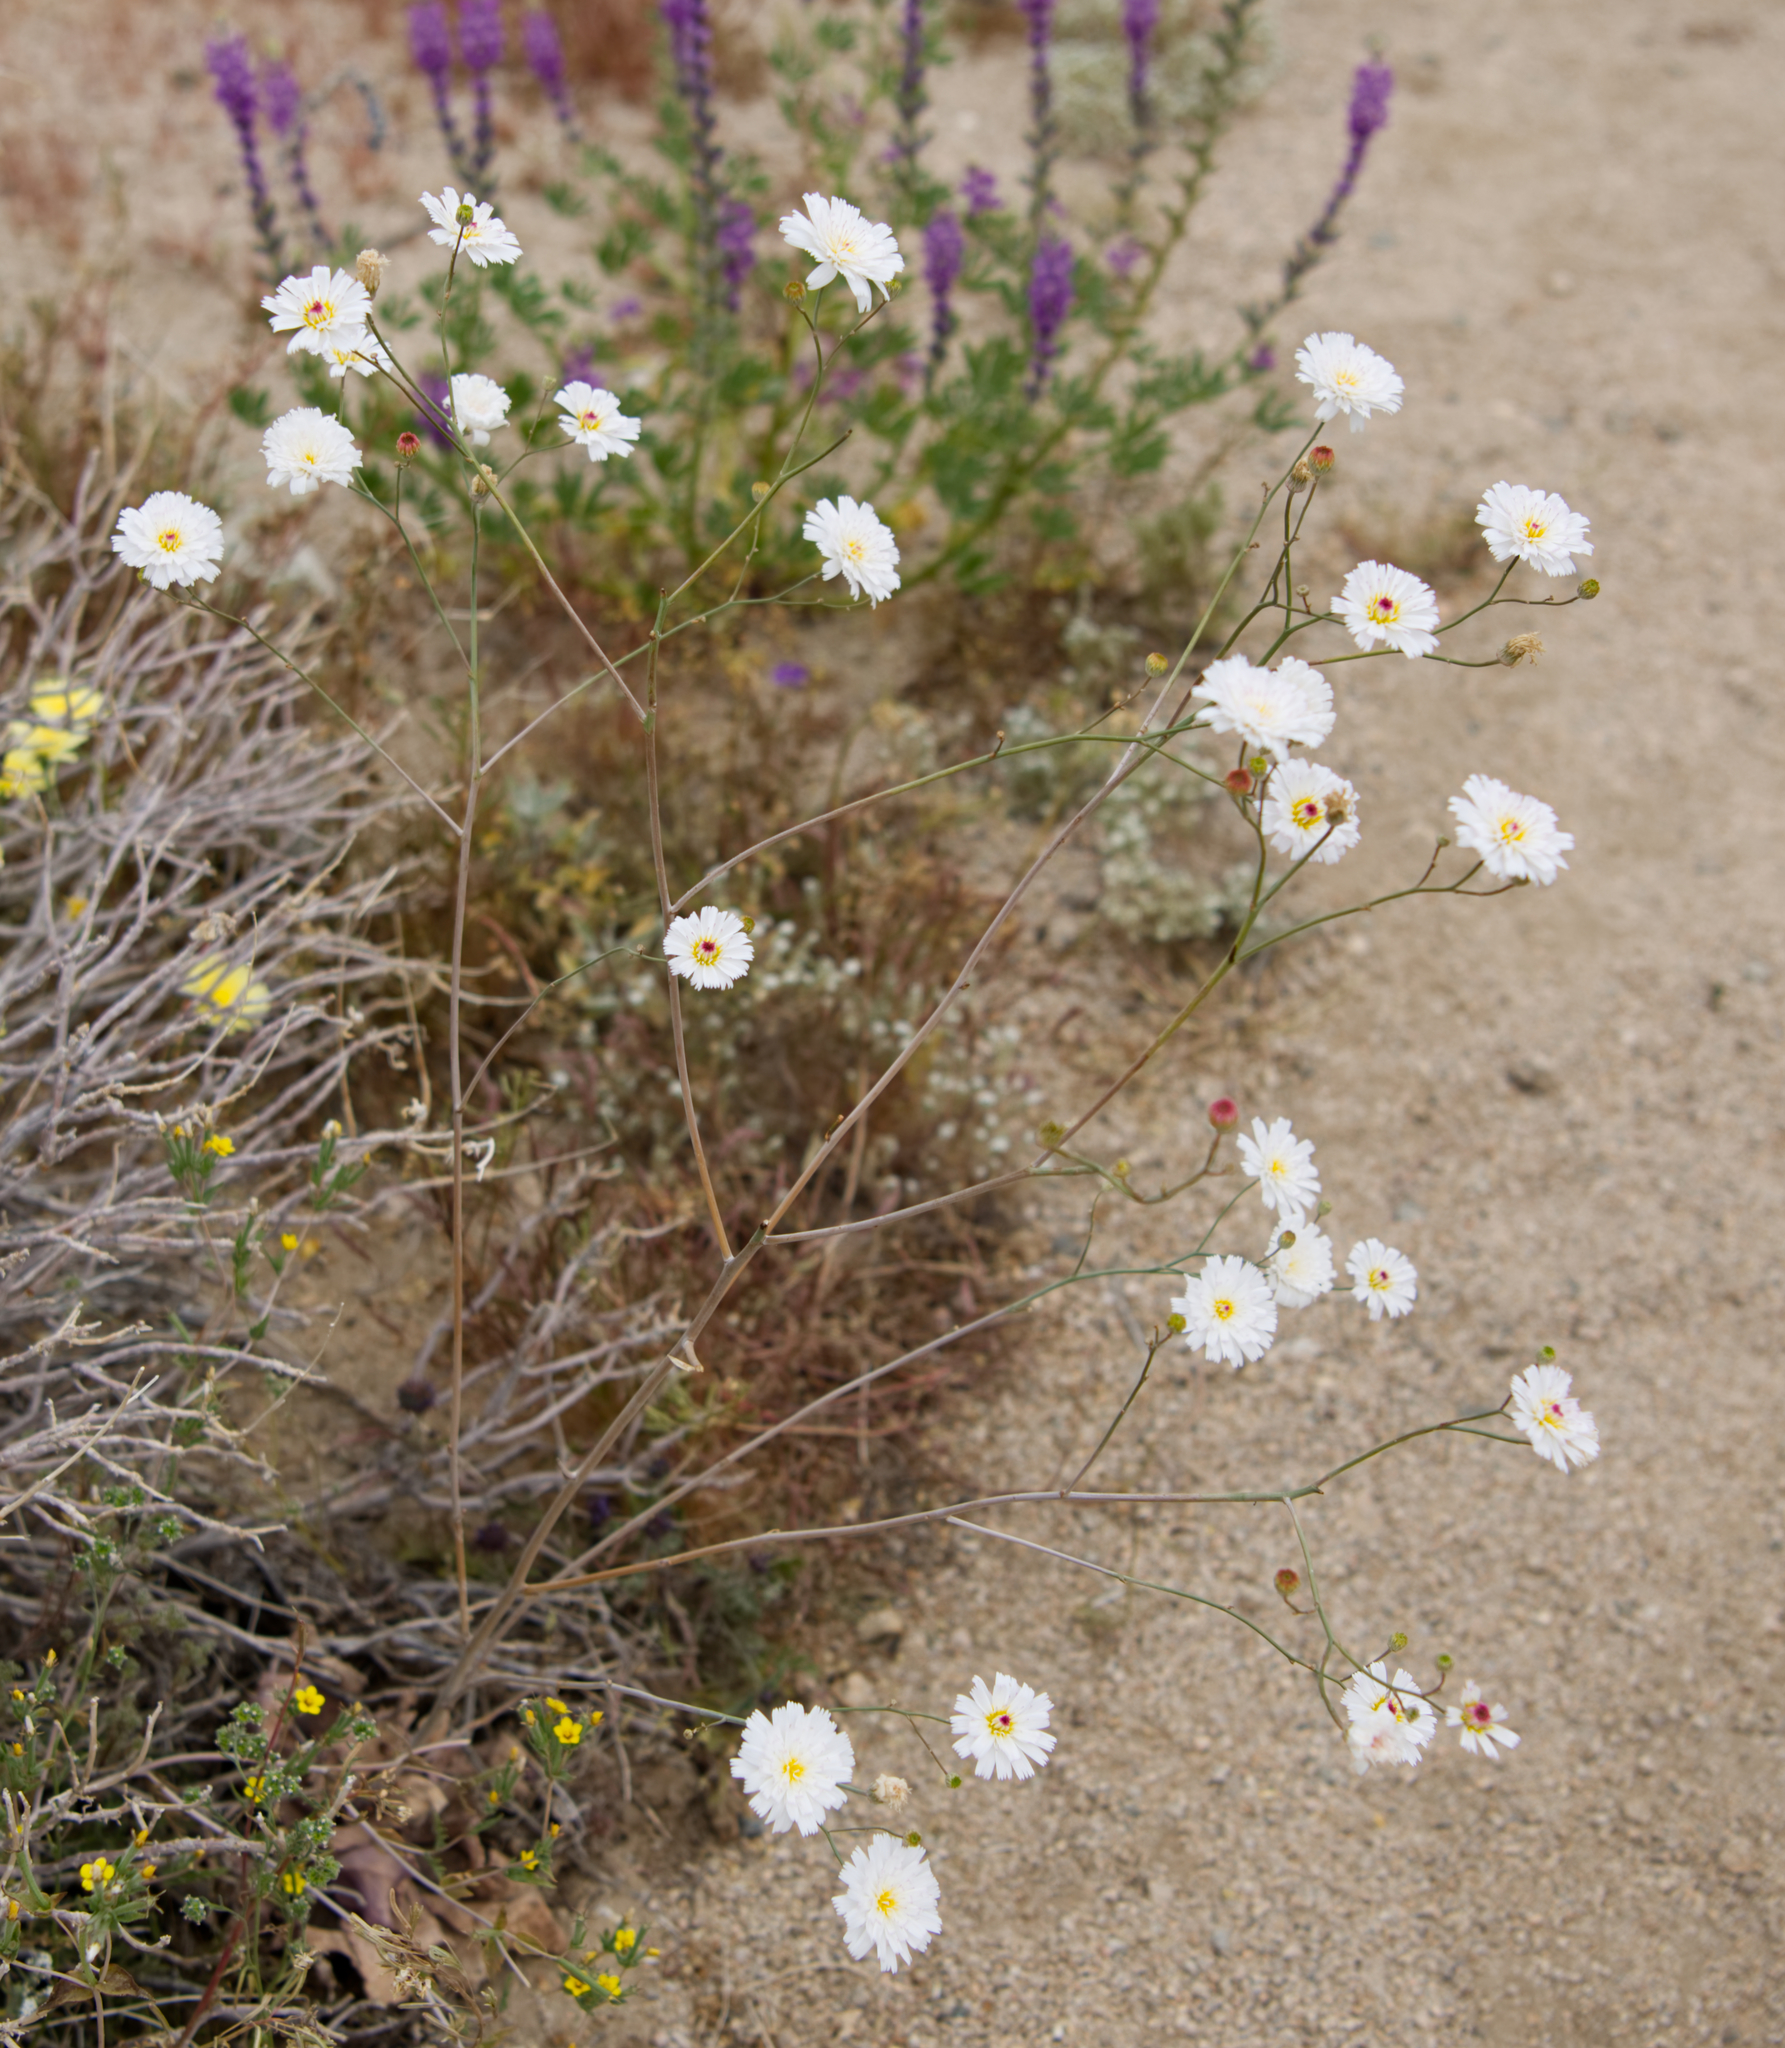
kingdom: Plantae
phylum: Tracheophyta
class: Magnoliopsida
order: Asterales
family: Asteraceae
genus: Atrichoseris
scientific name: Atrichoseris platyphylla
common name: Tobaccoweed
